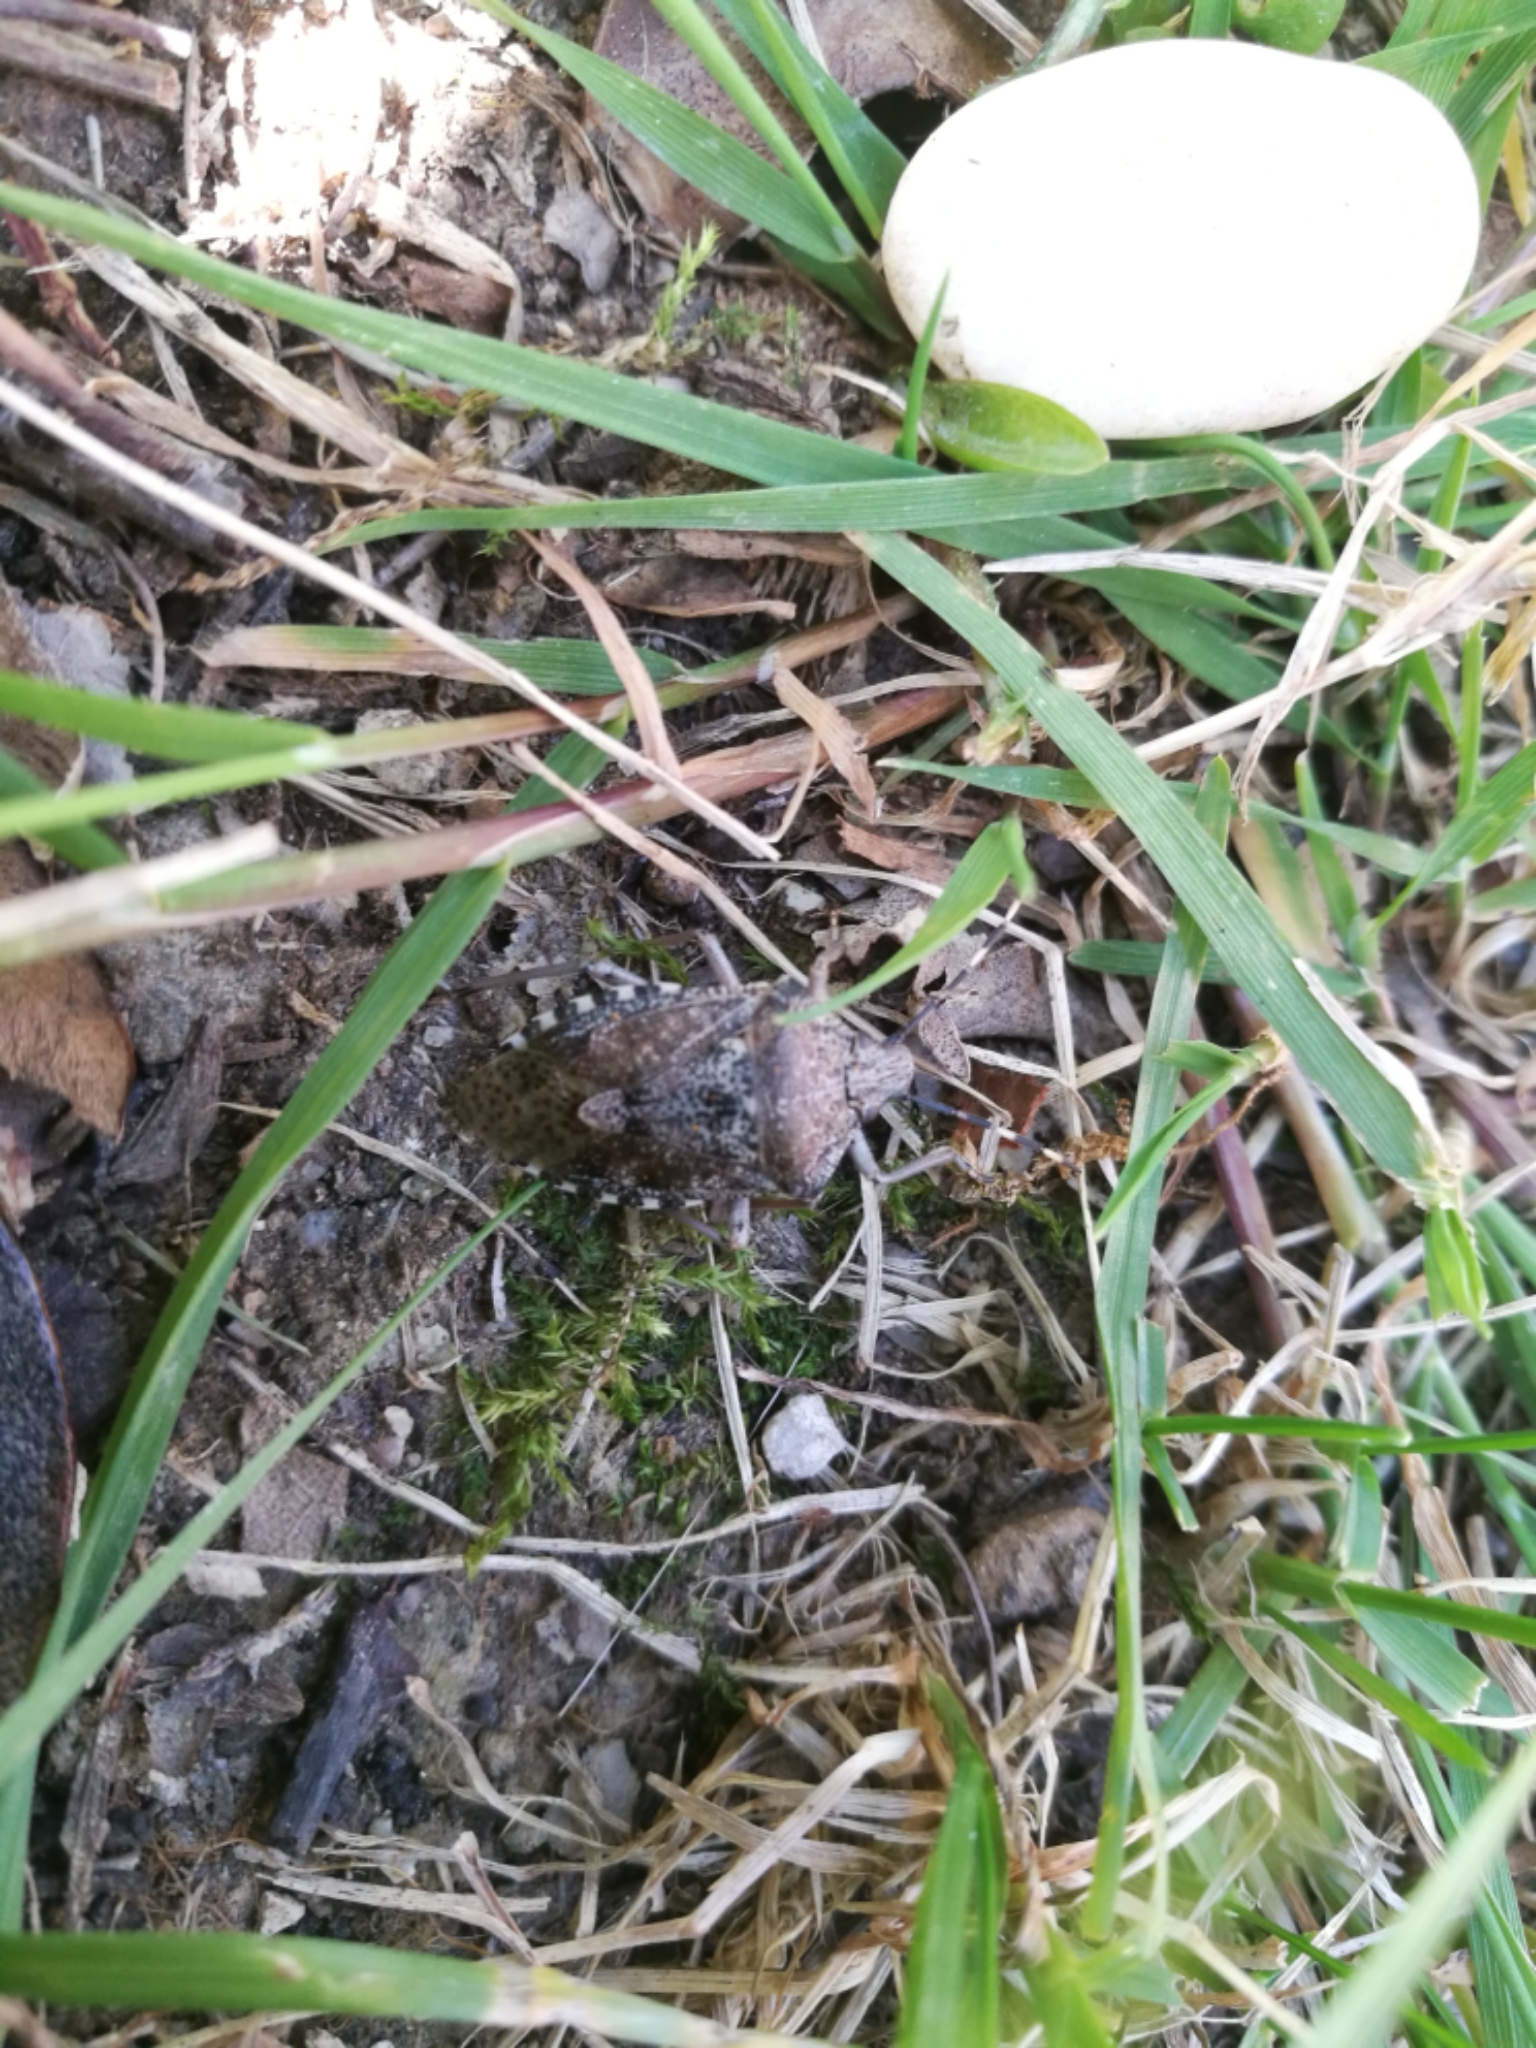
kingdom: Animalia
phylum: Arthropoda
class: Insecta
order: Hemiptera
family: Pentatomidae
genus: Rhaphigaster
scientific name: Rhaphigaster nebulosa
